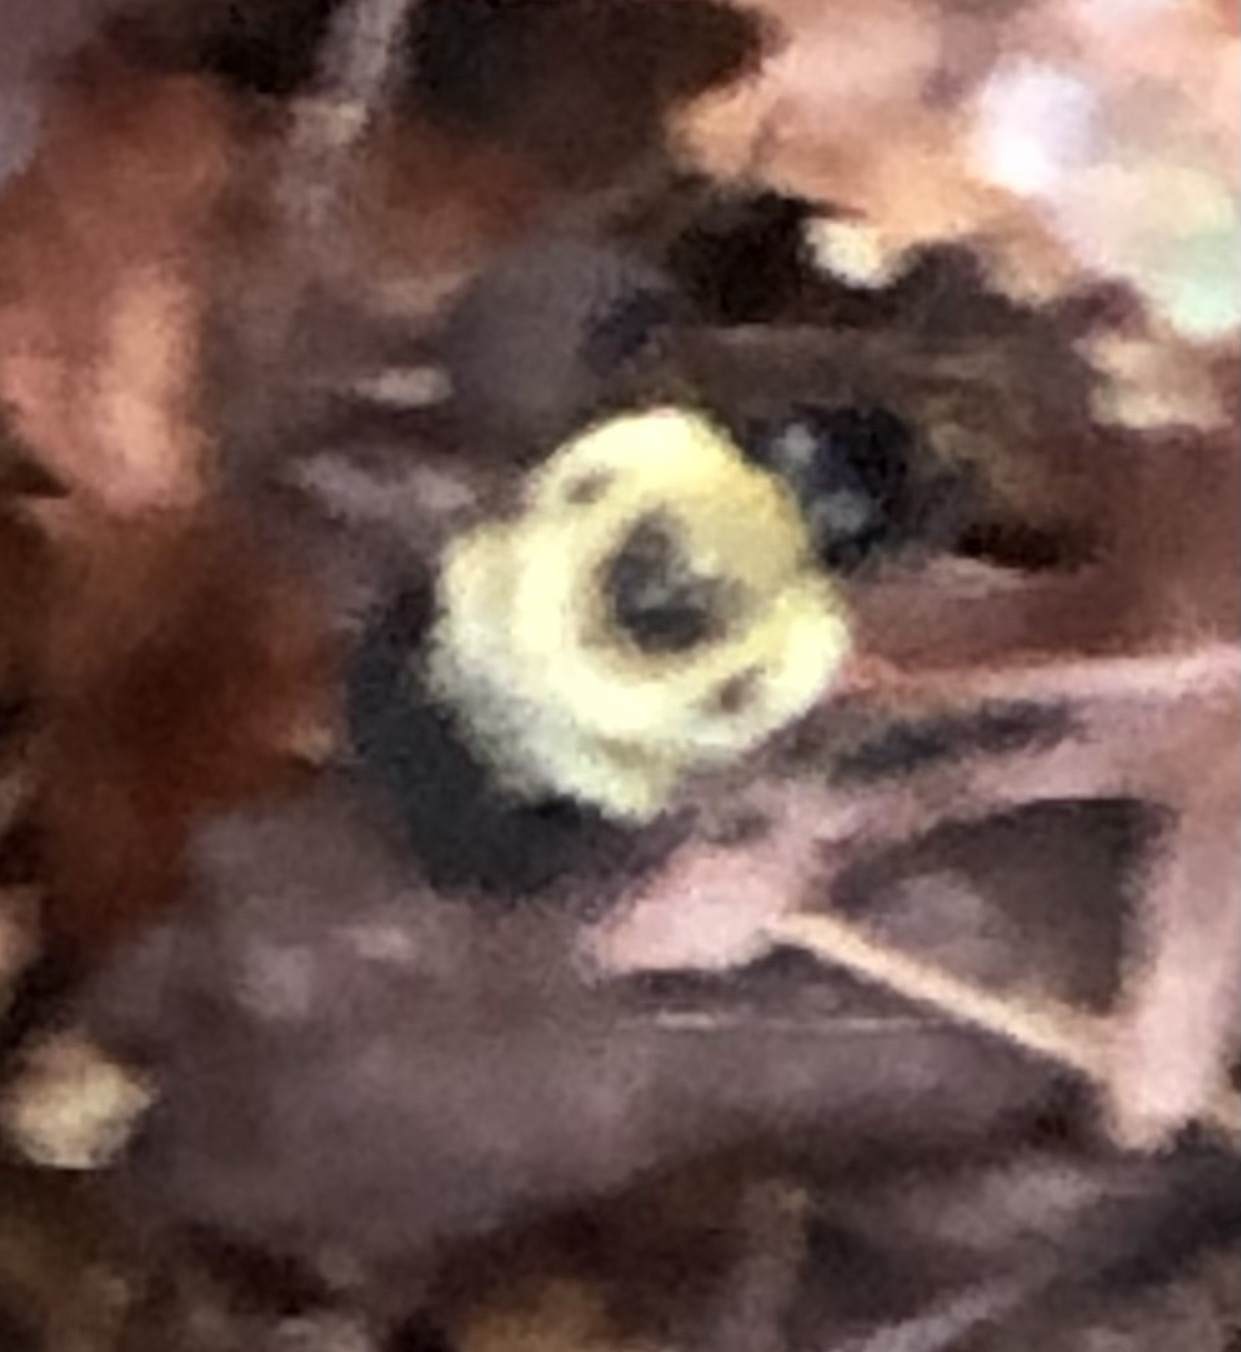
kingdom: Animalia
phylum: Arthropoda
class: Insecta
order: Hymenoptera
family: Apidae
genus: Bombus
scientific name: Bombus bimaculatus
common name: Two-spotted bumble bee
